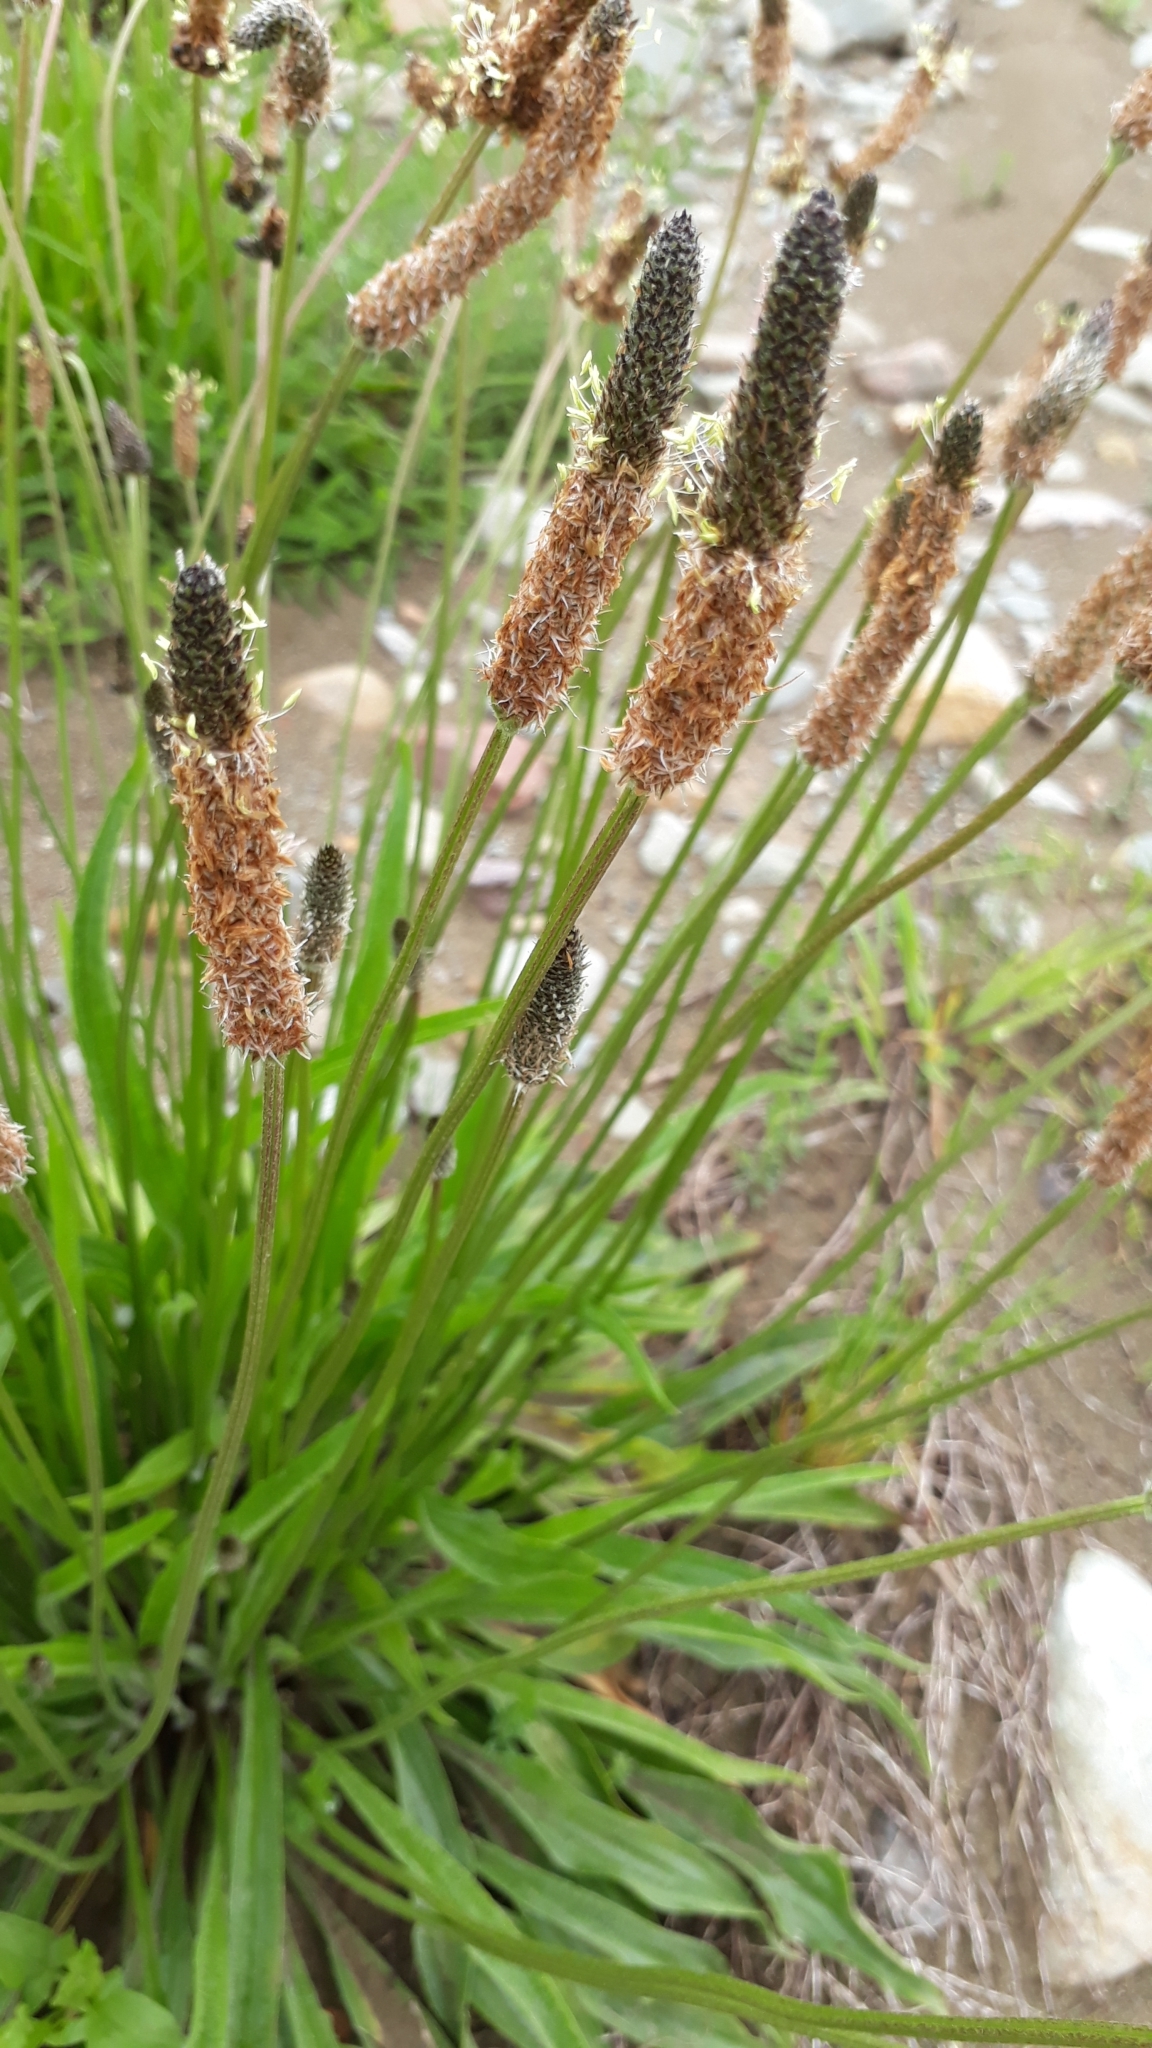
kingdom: Plantae
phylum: Tracheophyta
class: Magnoliopsida
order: Lamiales
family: Plantaginaceae
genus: Plantago
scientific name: Plantago lanceolata
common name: Ribwort plantain
